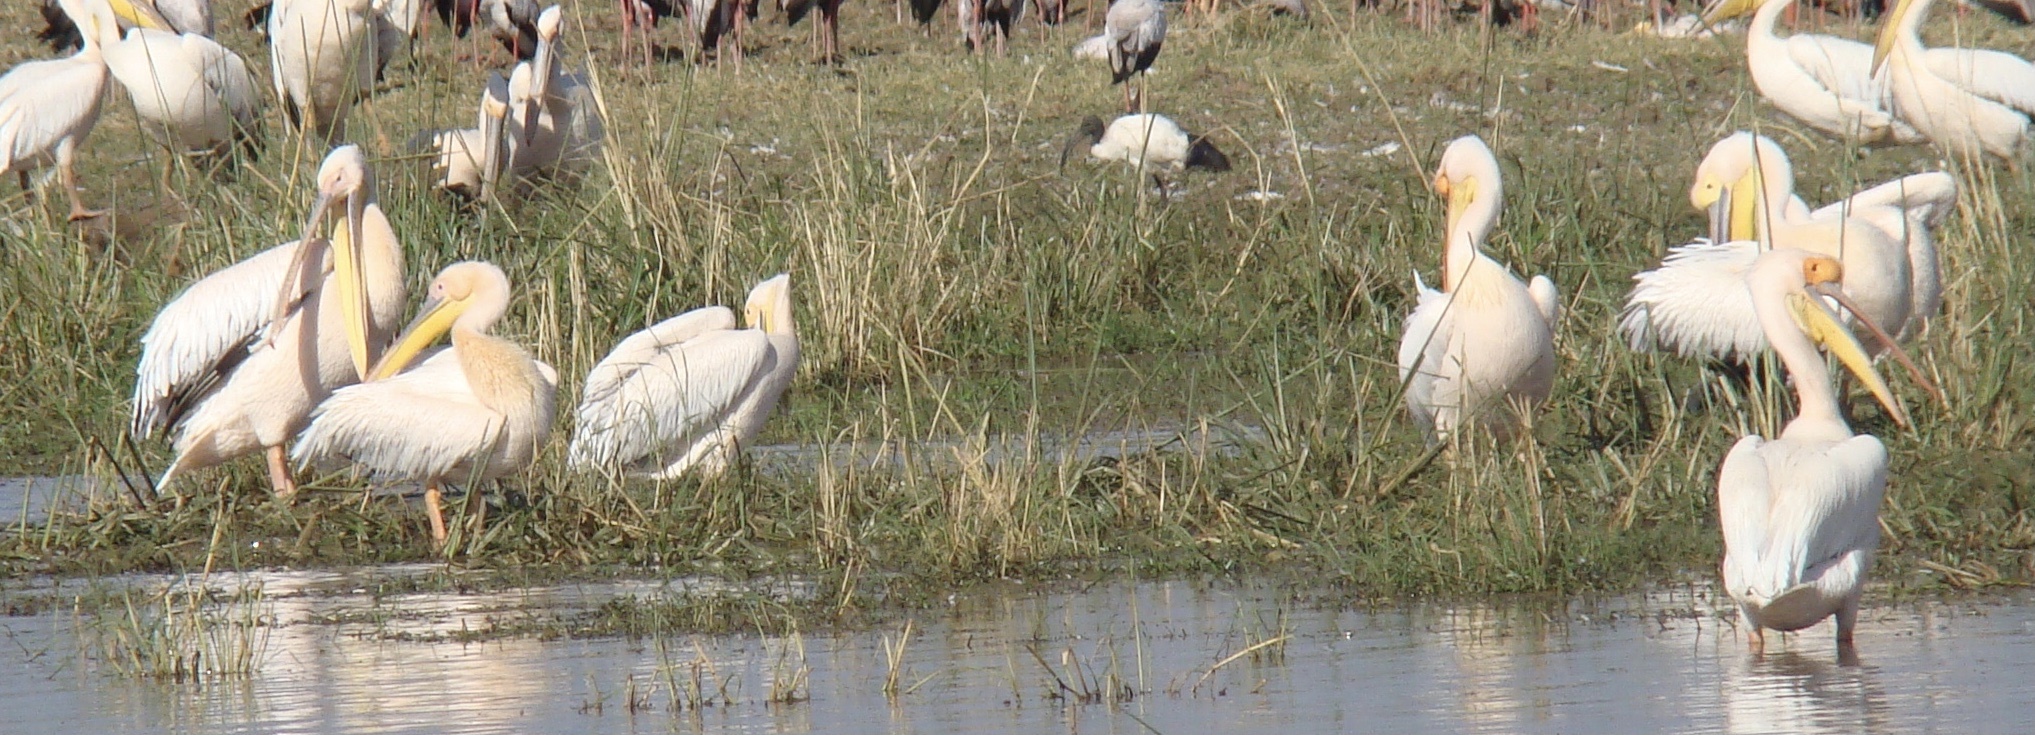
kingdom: Animalia
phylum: Chordata
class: Aves
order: Pelecaniformes
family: Pelecanidae
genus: Pelecanus
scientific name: Pelecanus onocrotalus
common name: Great white pelican
